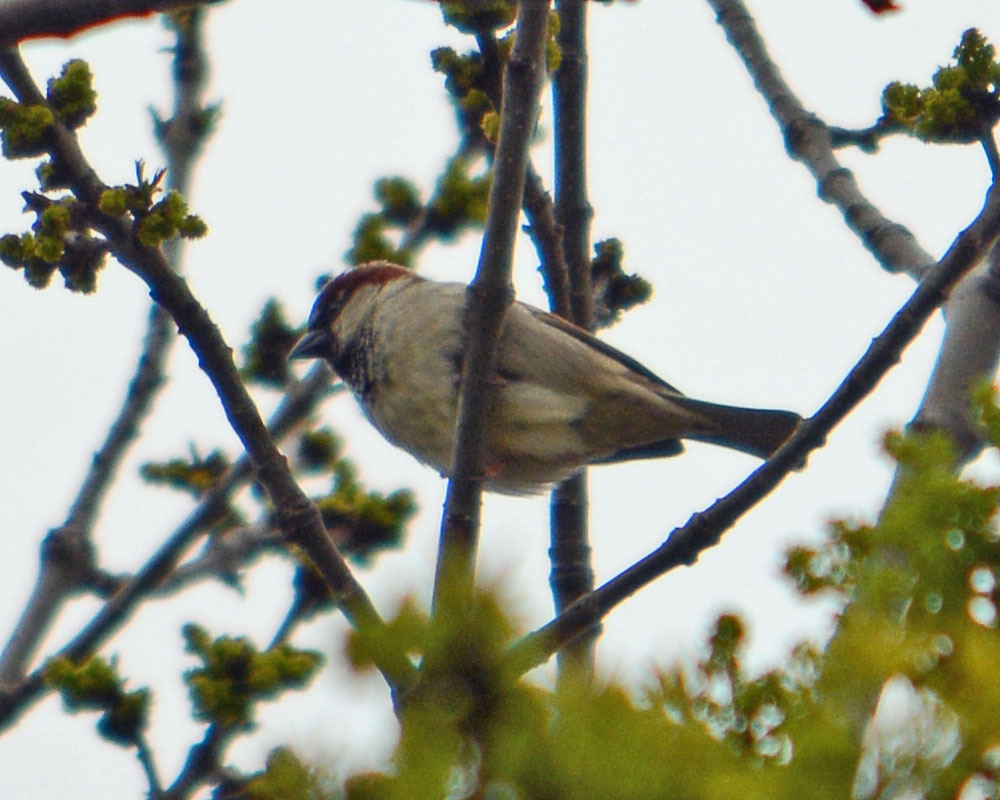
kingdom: Animalia
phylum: Chordata
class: Aves
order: Passeriformes
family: Passeridae
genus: Passer
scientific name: Passer domesticus
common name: House sparrow
